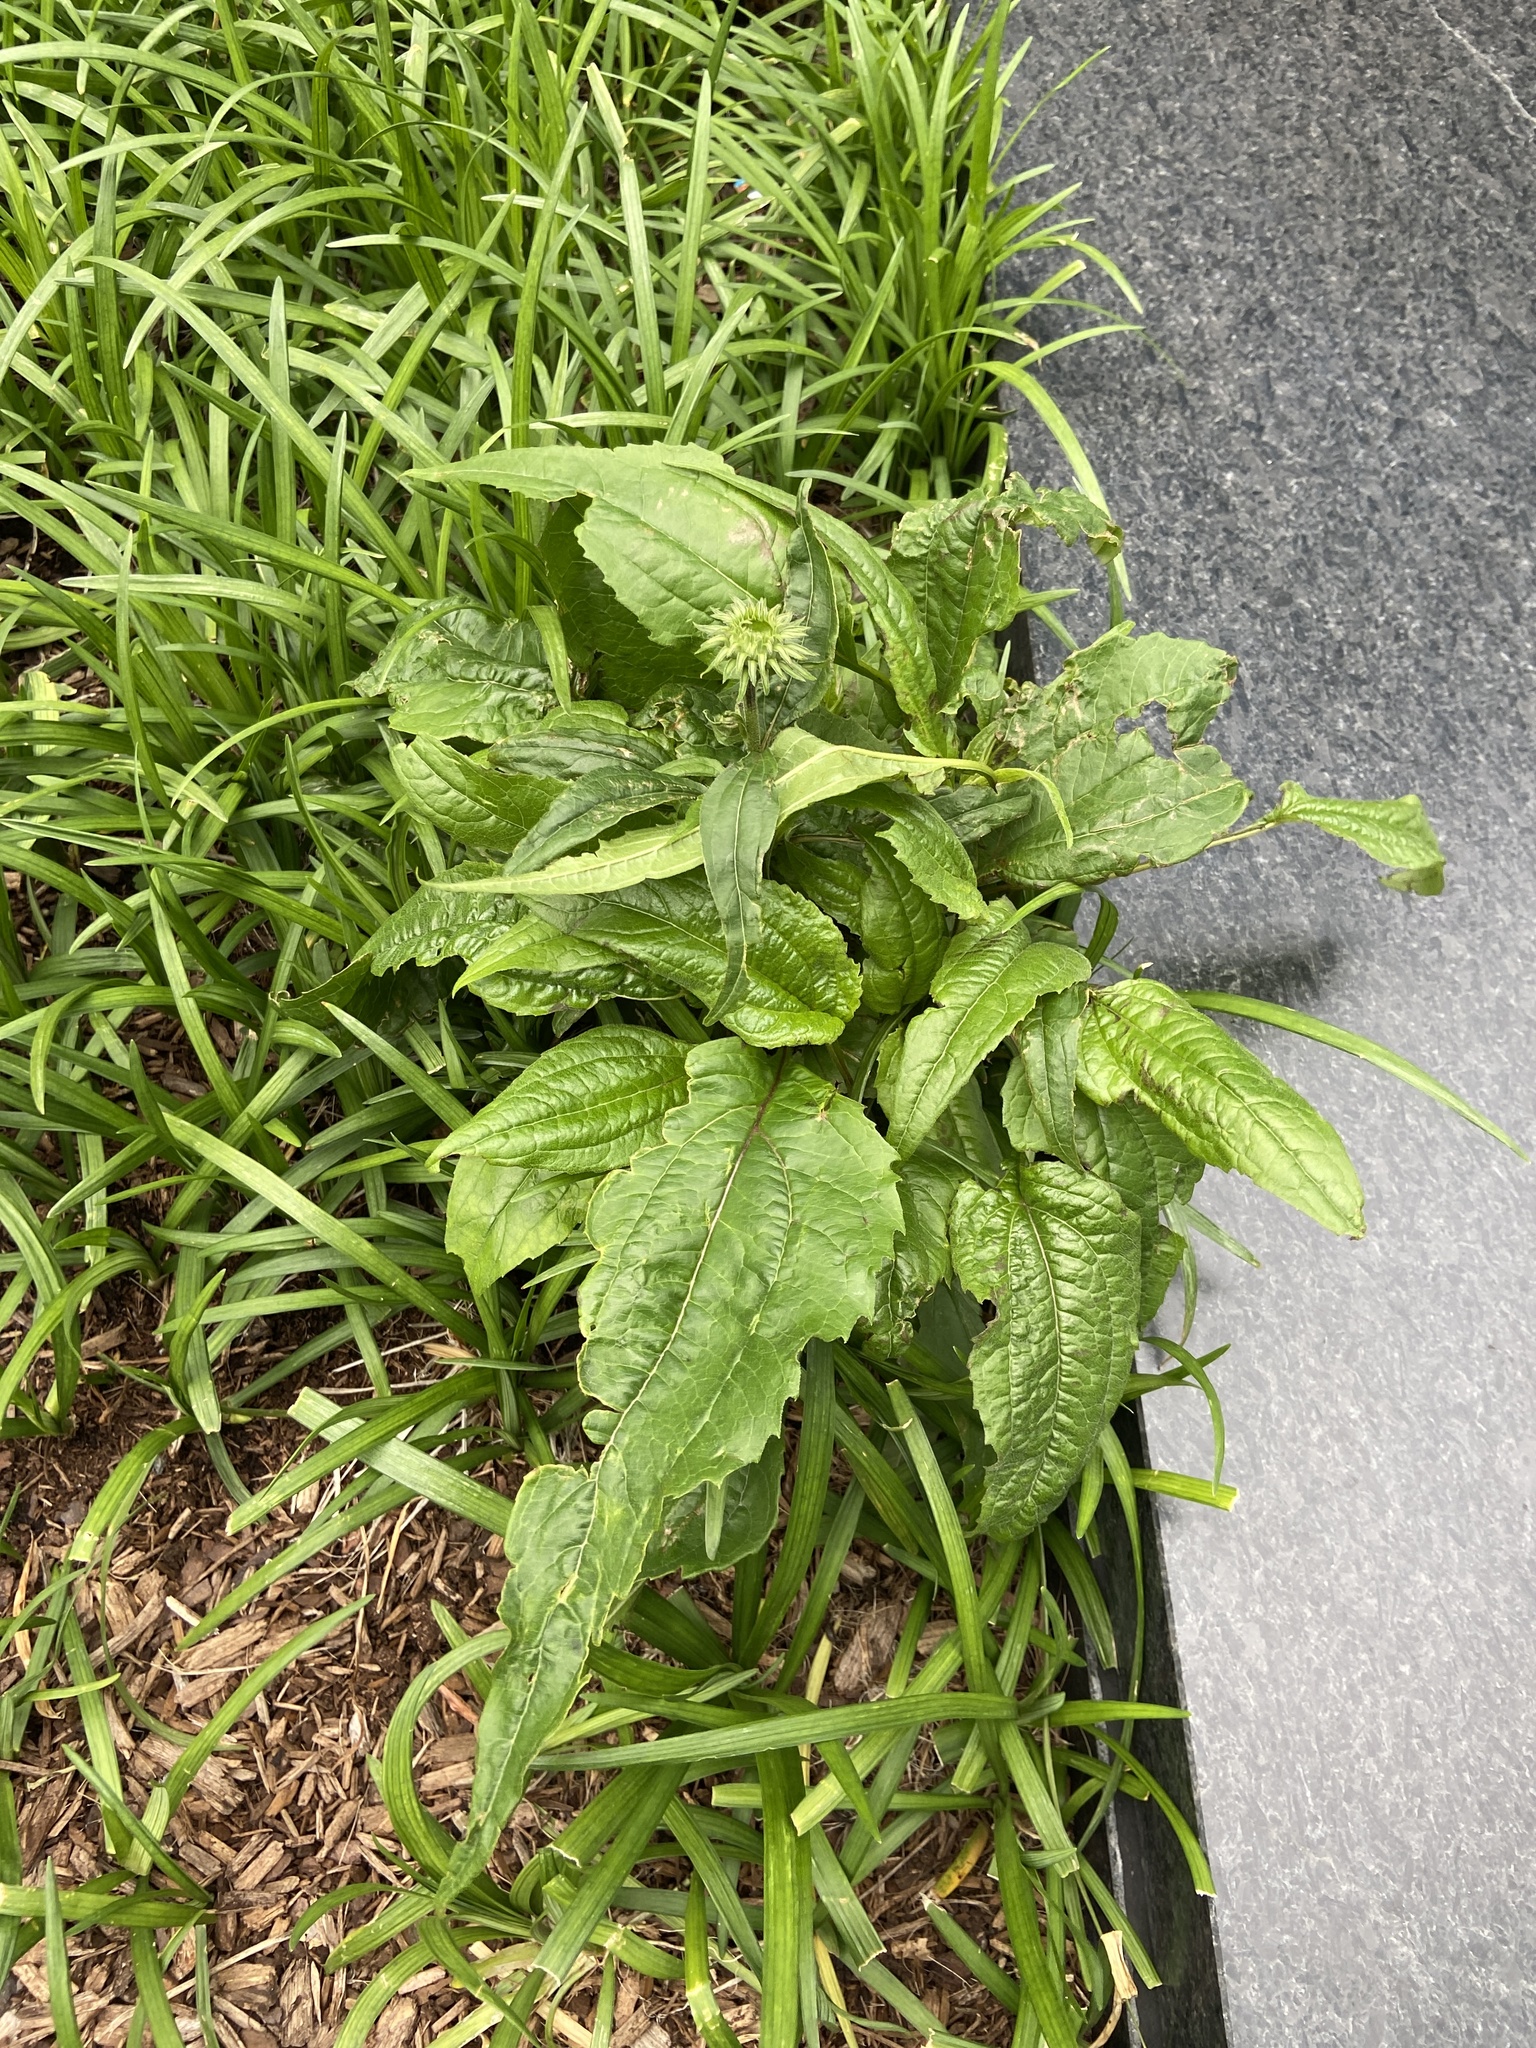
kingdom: Plantae
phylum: Tracheophyta
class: Magnoliopsida
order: Asterales
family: Asteraceae
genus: Echinacea
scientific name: Echinacea purpurea
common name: Broad-leaved purple coneflower
